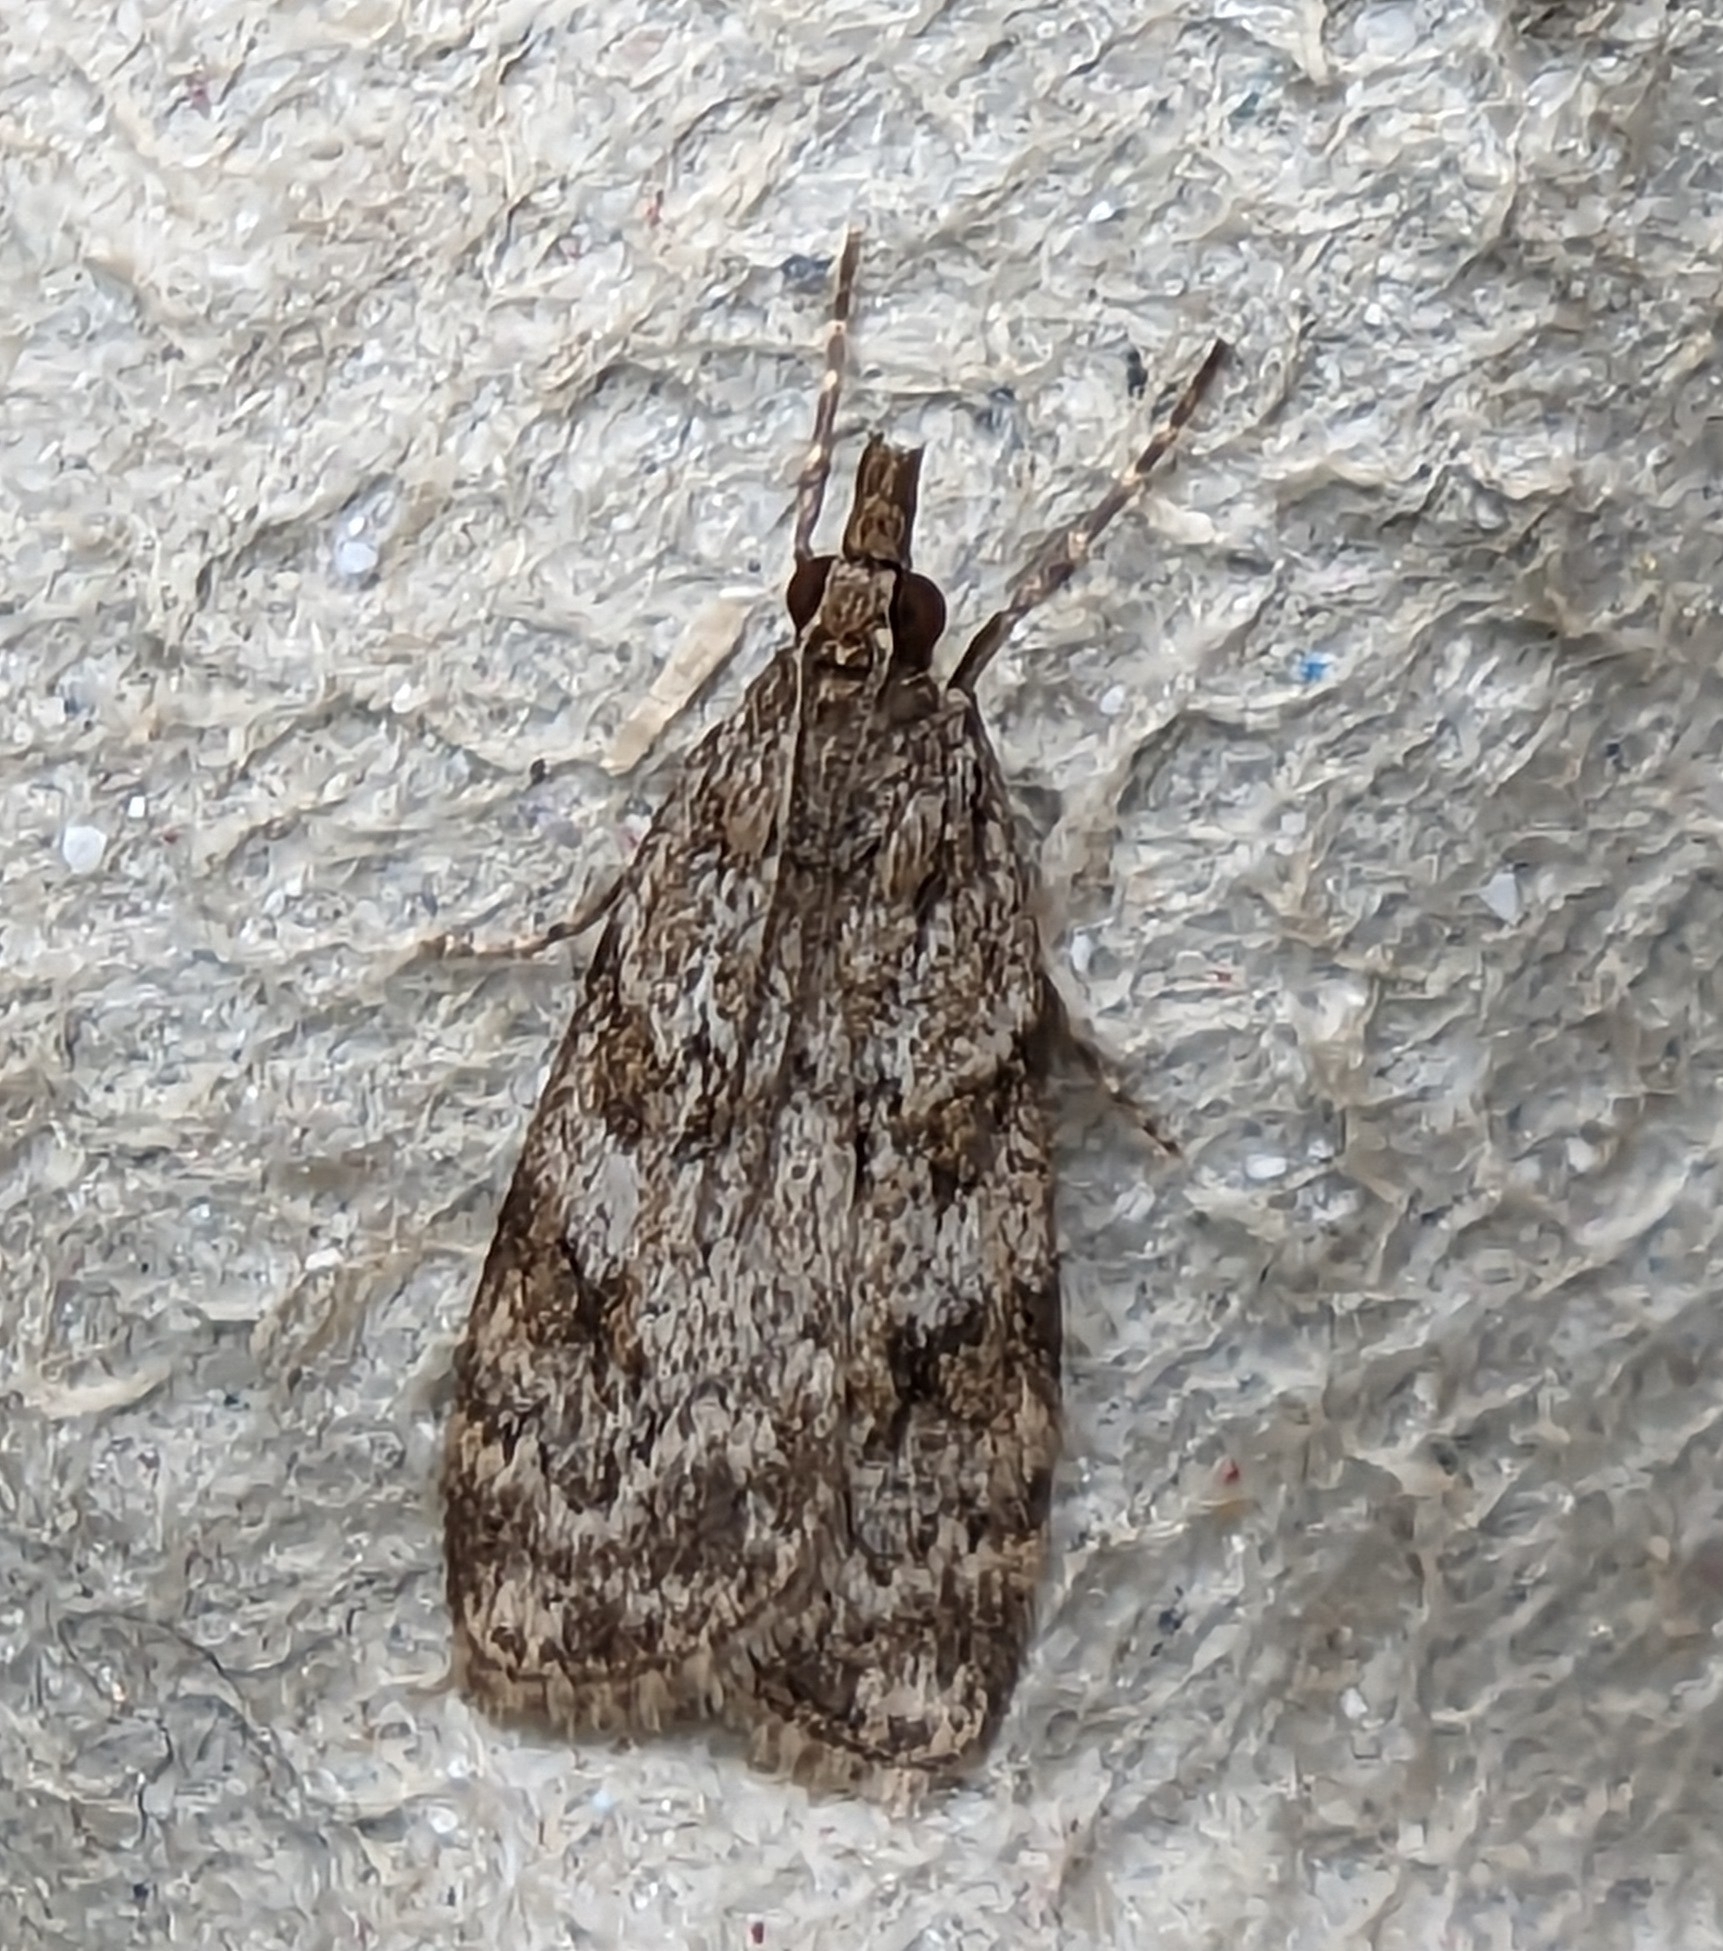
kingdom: Animalia
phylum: Arthropoda
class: Insecta
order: Lepidoptera
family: Crambidae
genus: Scoparia
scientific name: Scoparia ambigualis
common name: Common grey
